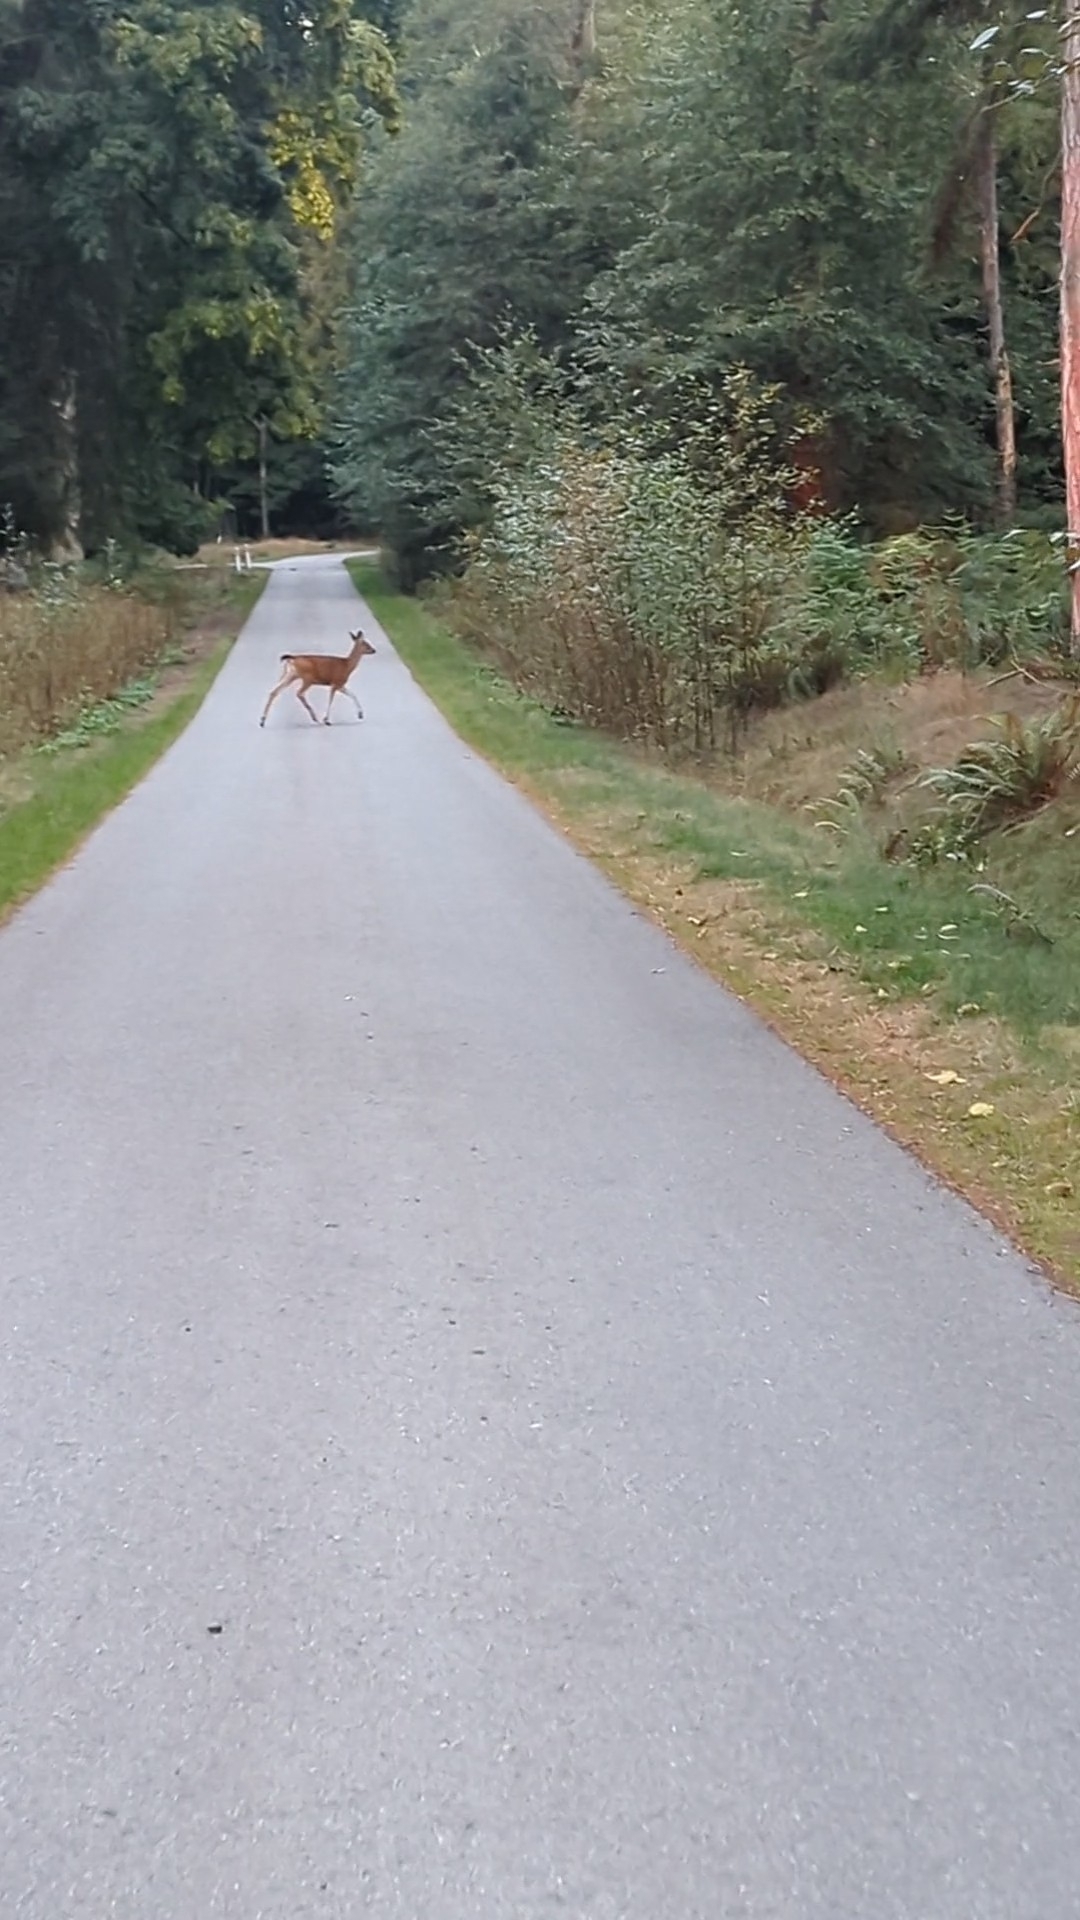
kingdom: Animalia
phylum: Chordata
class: Mammalia
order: Artiodactyla
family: Cervidae
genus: Odocoileus
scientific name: Odocoileus hemionus
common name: Mule deer
